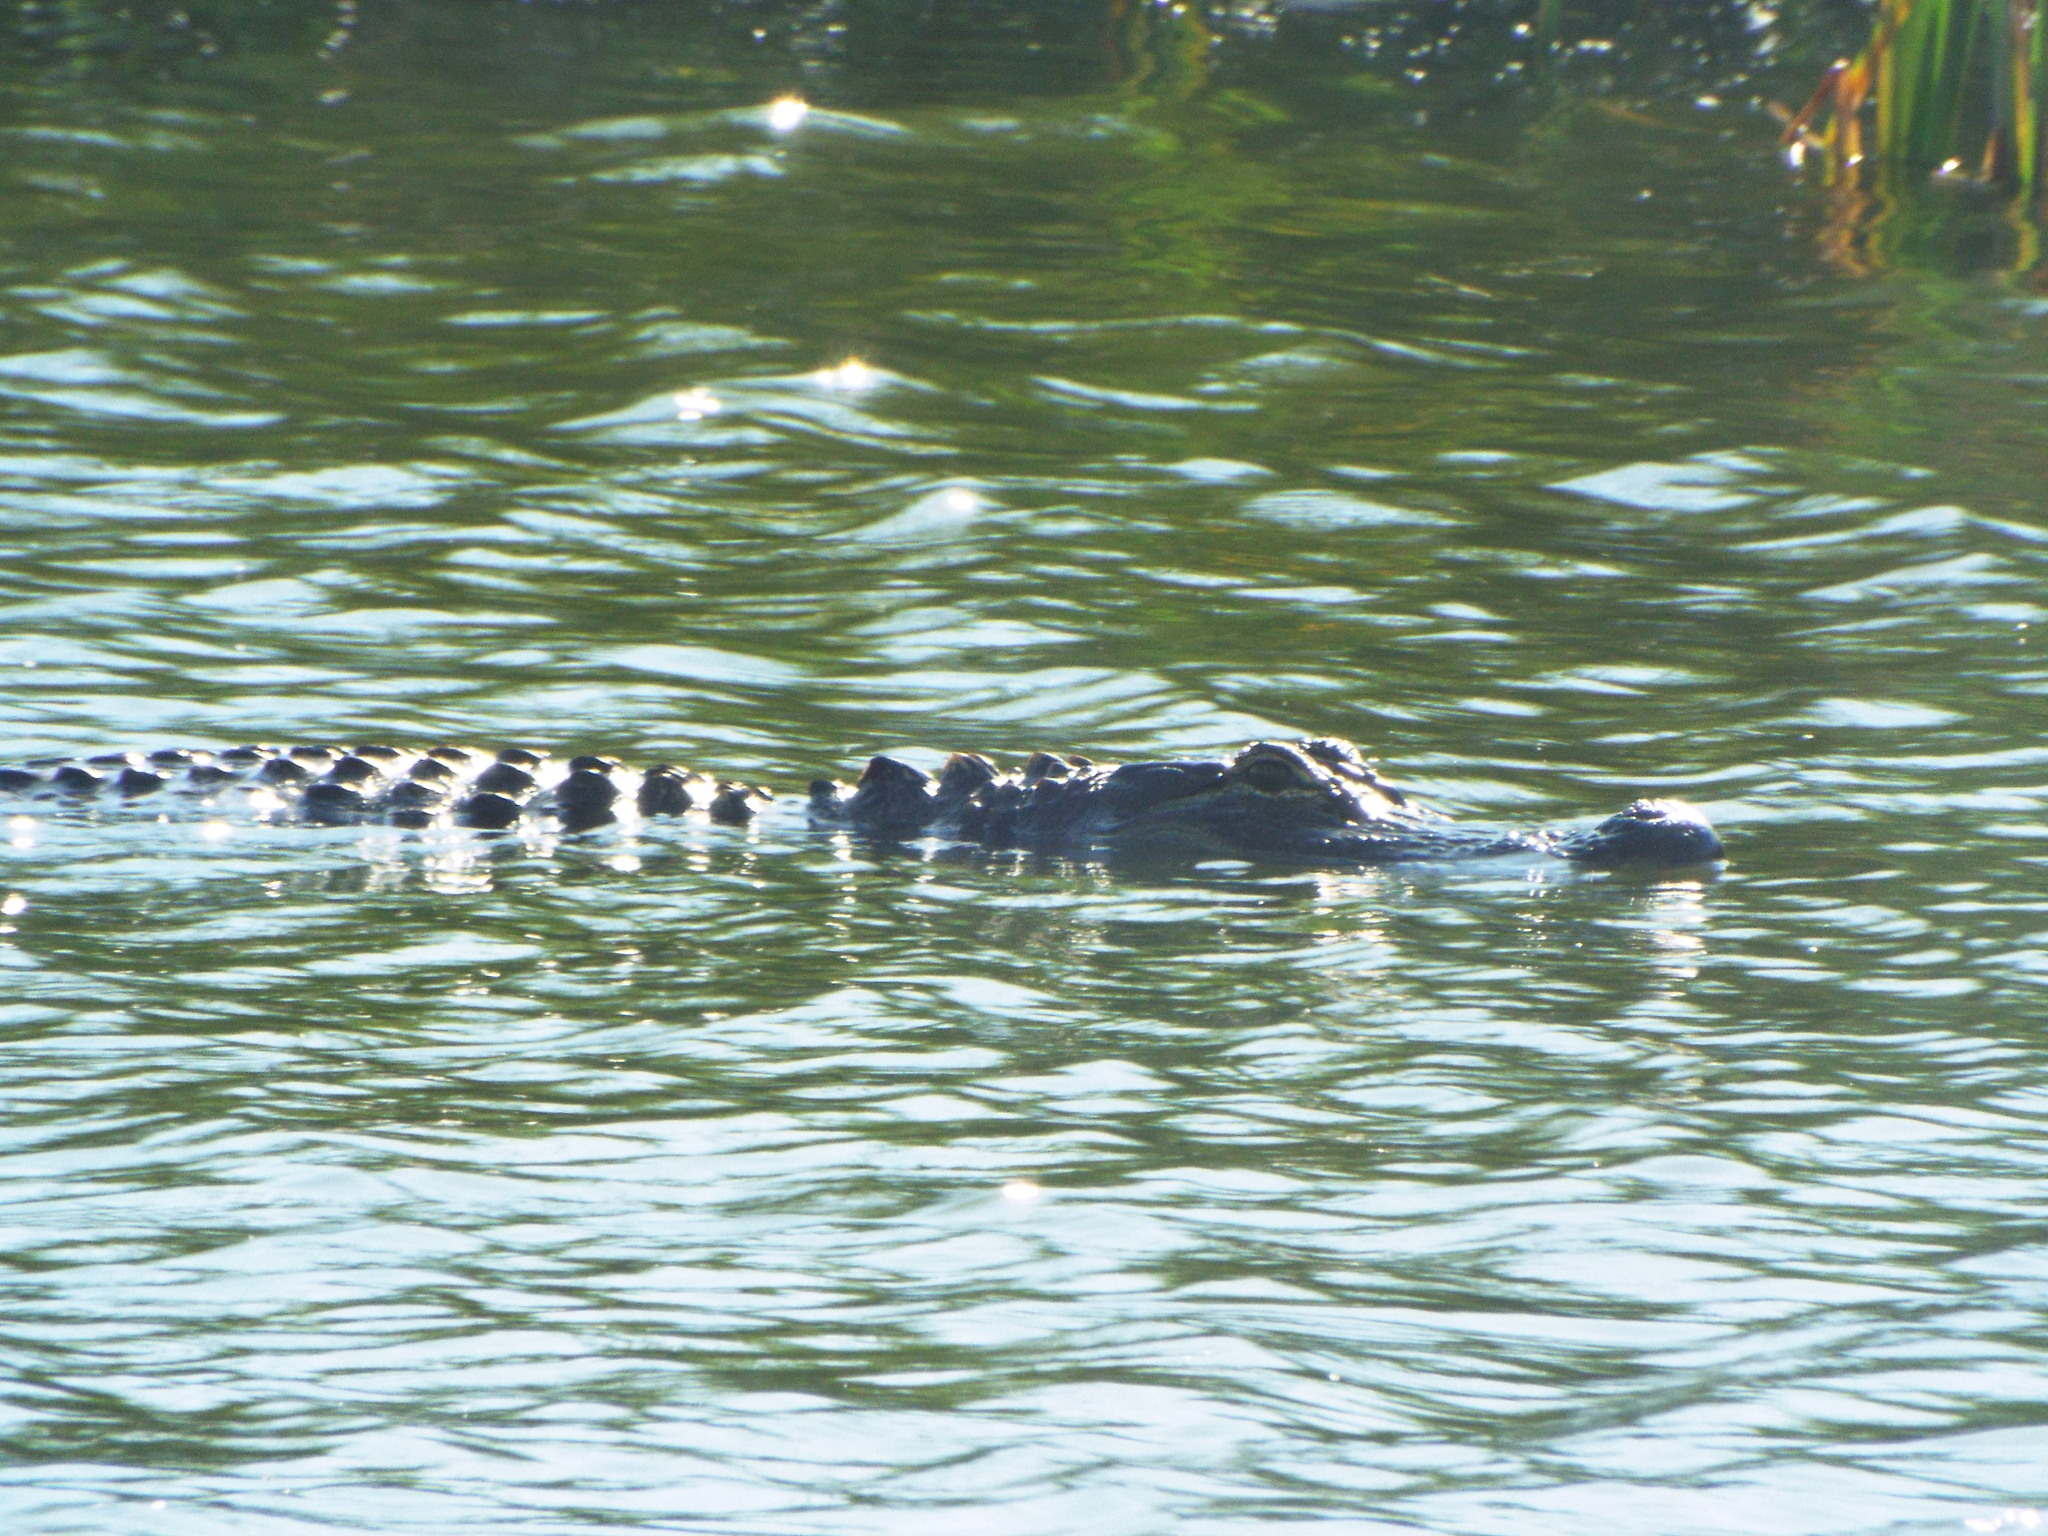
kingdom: Animalia
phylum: Chordata
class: Crocodylia
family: Alligatoridae
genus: Alligator
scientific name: Alligator mississippiensis
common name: American alligator
